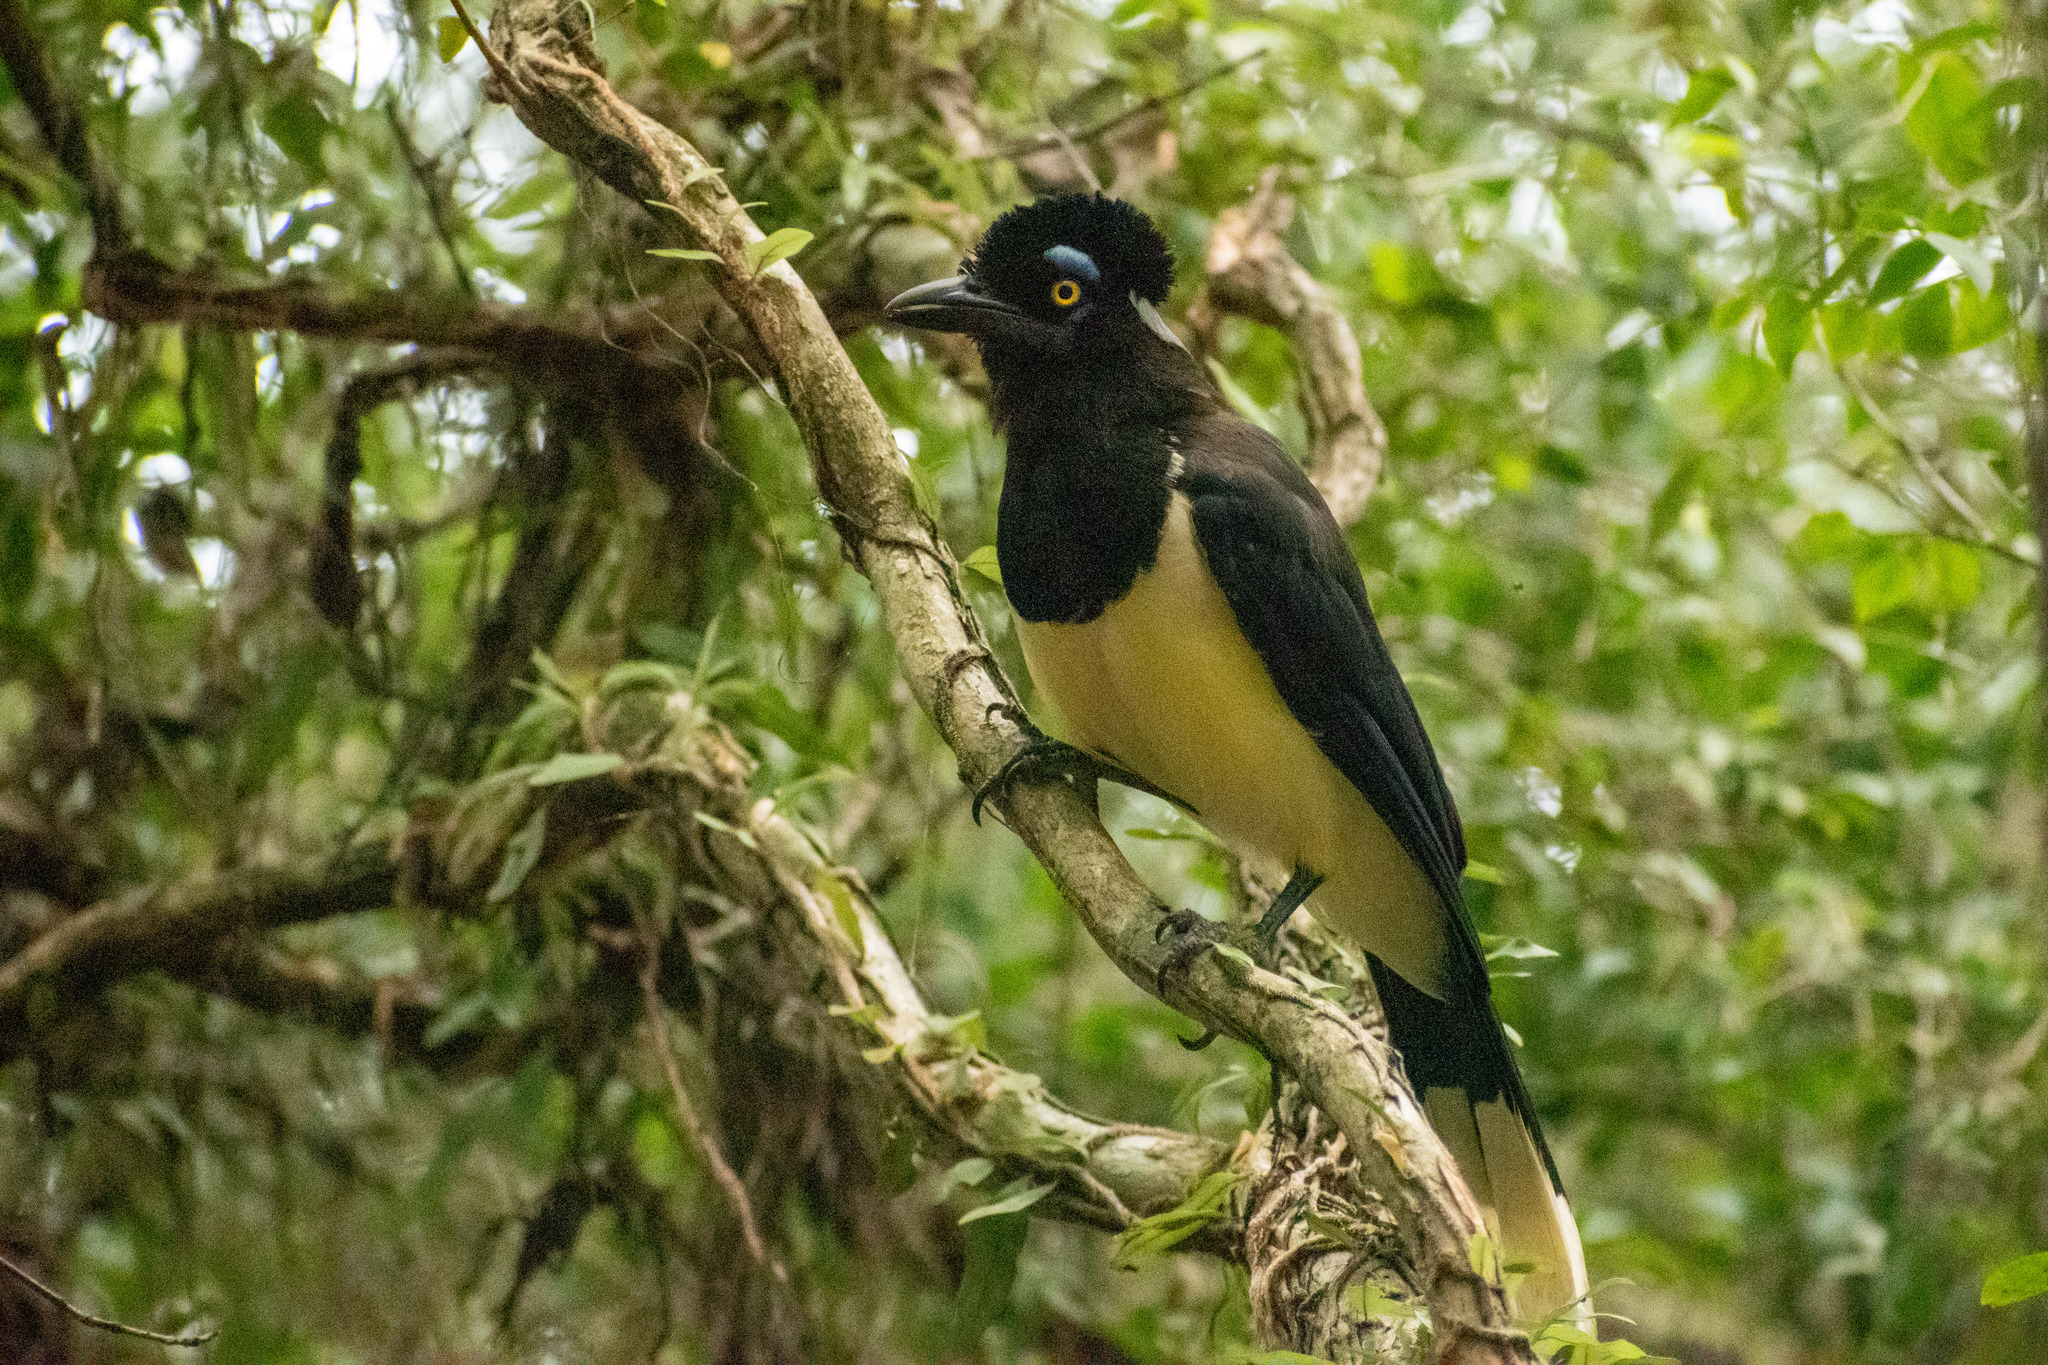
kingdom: Animalia
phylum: Chordata
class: Aves
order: Passeriformes
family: Corvidae
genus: Cyanocorax
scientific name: Cyanocorax chrysops
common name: Plush-crested jay
